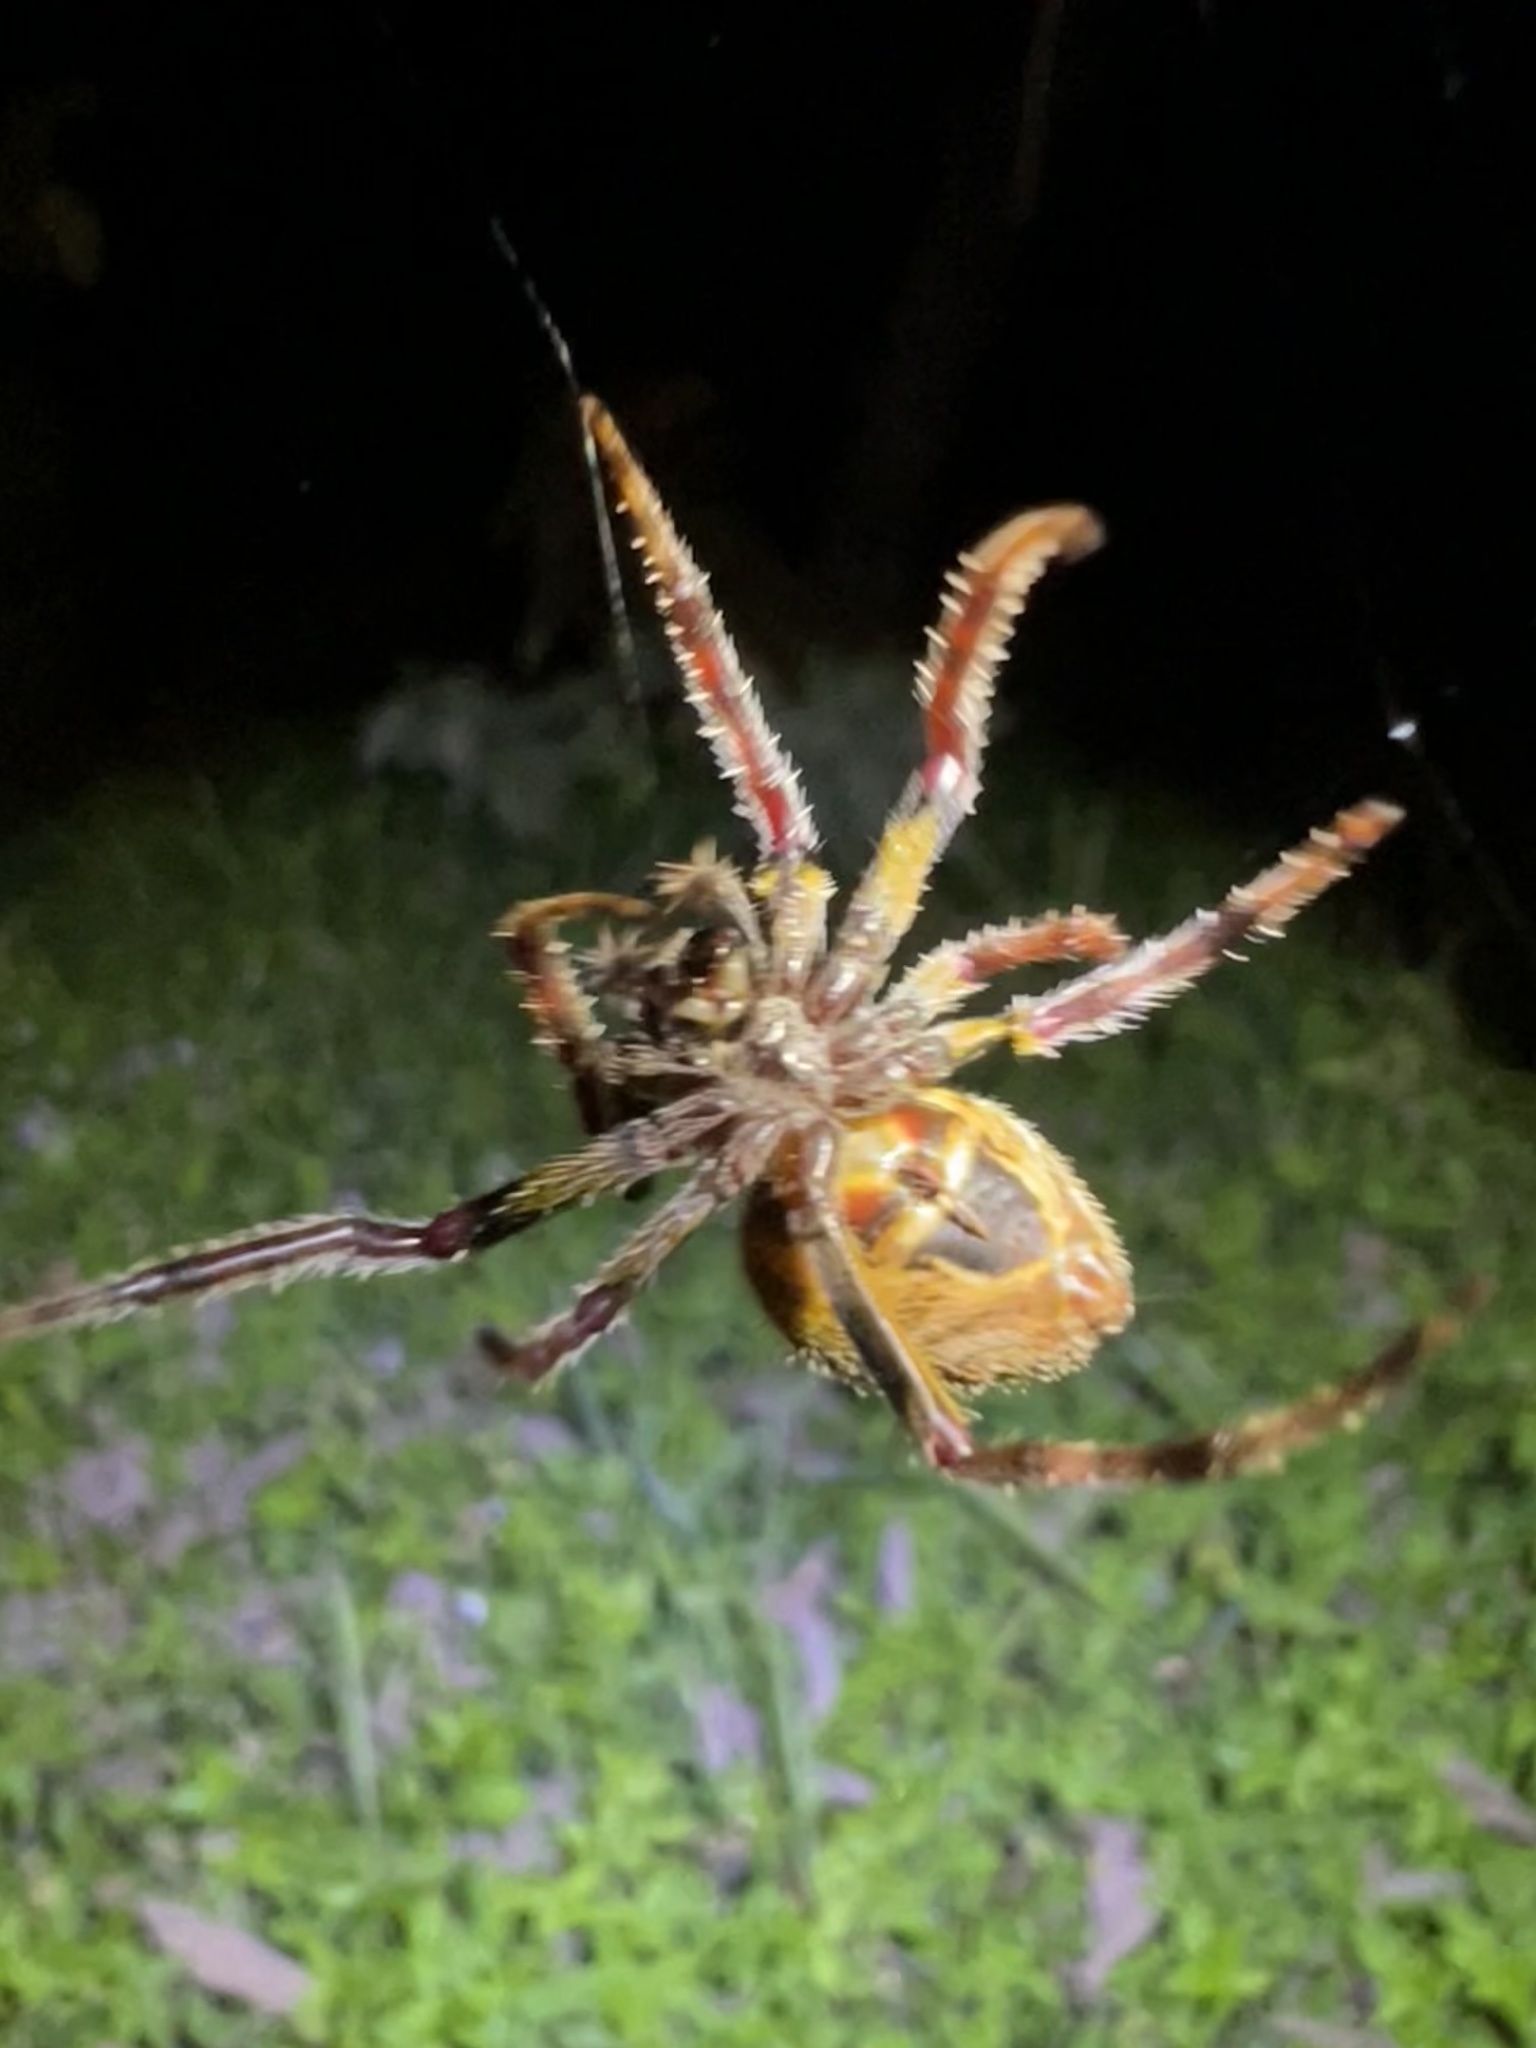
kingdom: Animalia
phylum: Arthropoda
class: Arachnida
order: Araneae
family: Araneidae
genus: Eriophora
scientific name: Eriophora ravilla
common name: Orb weavers
